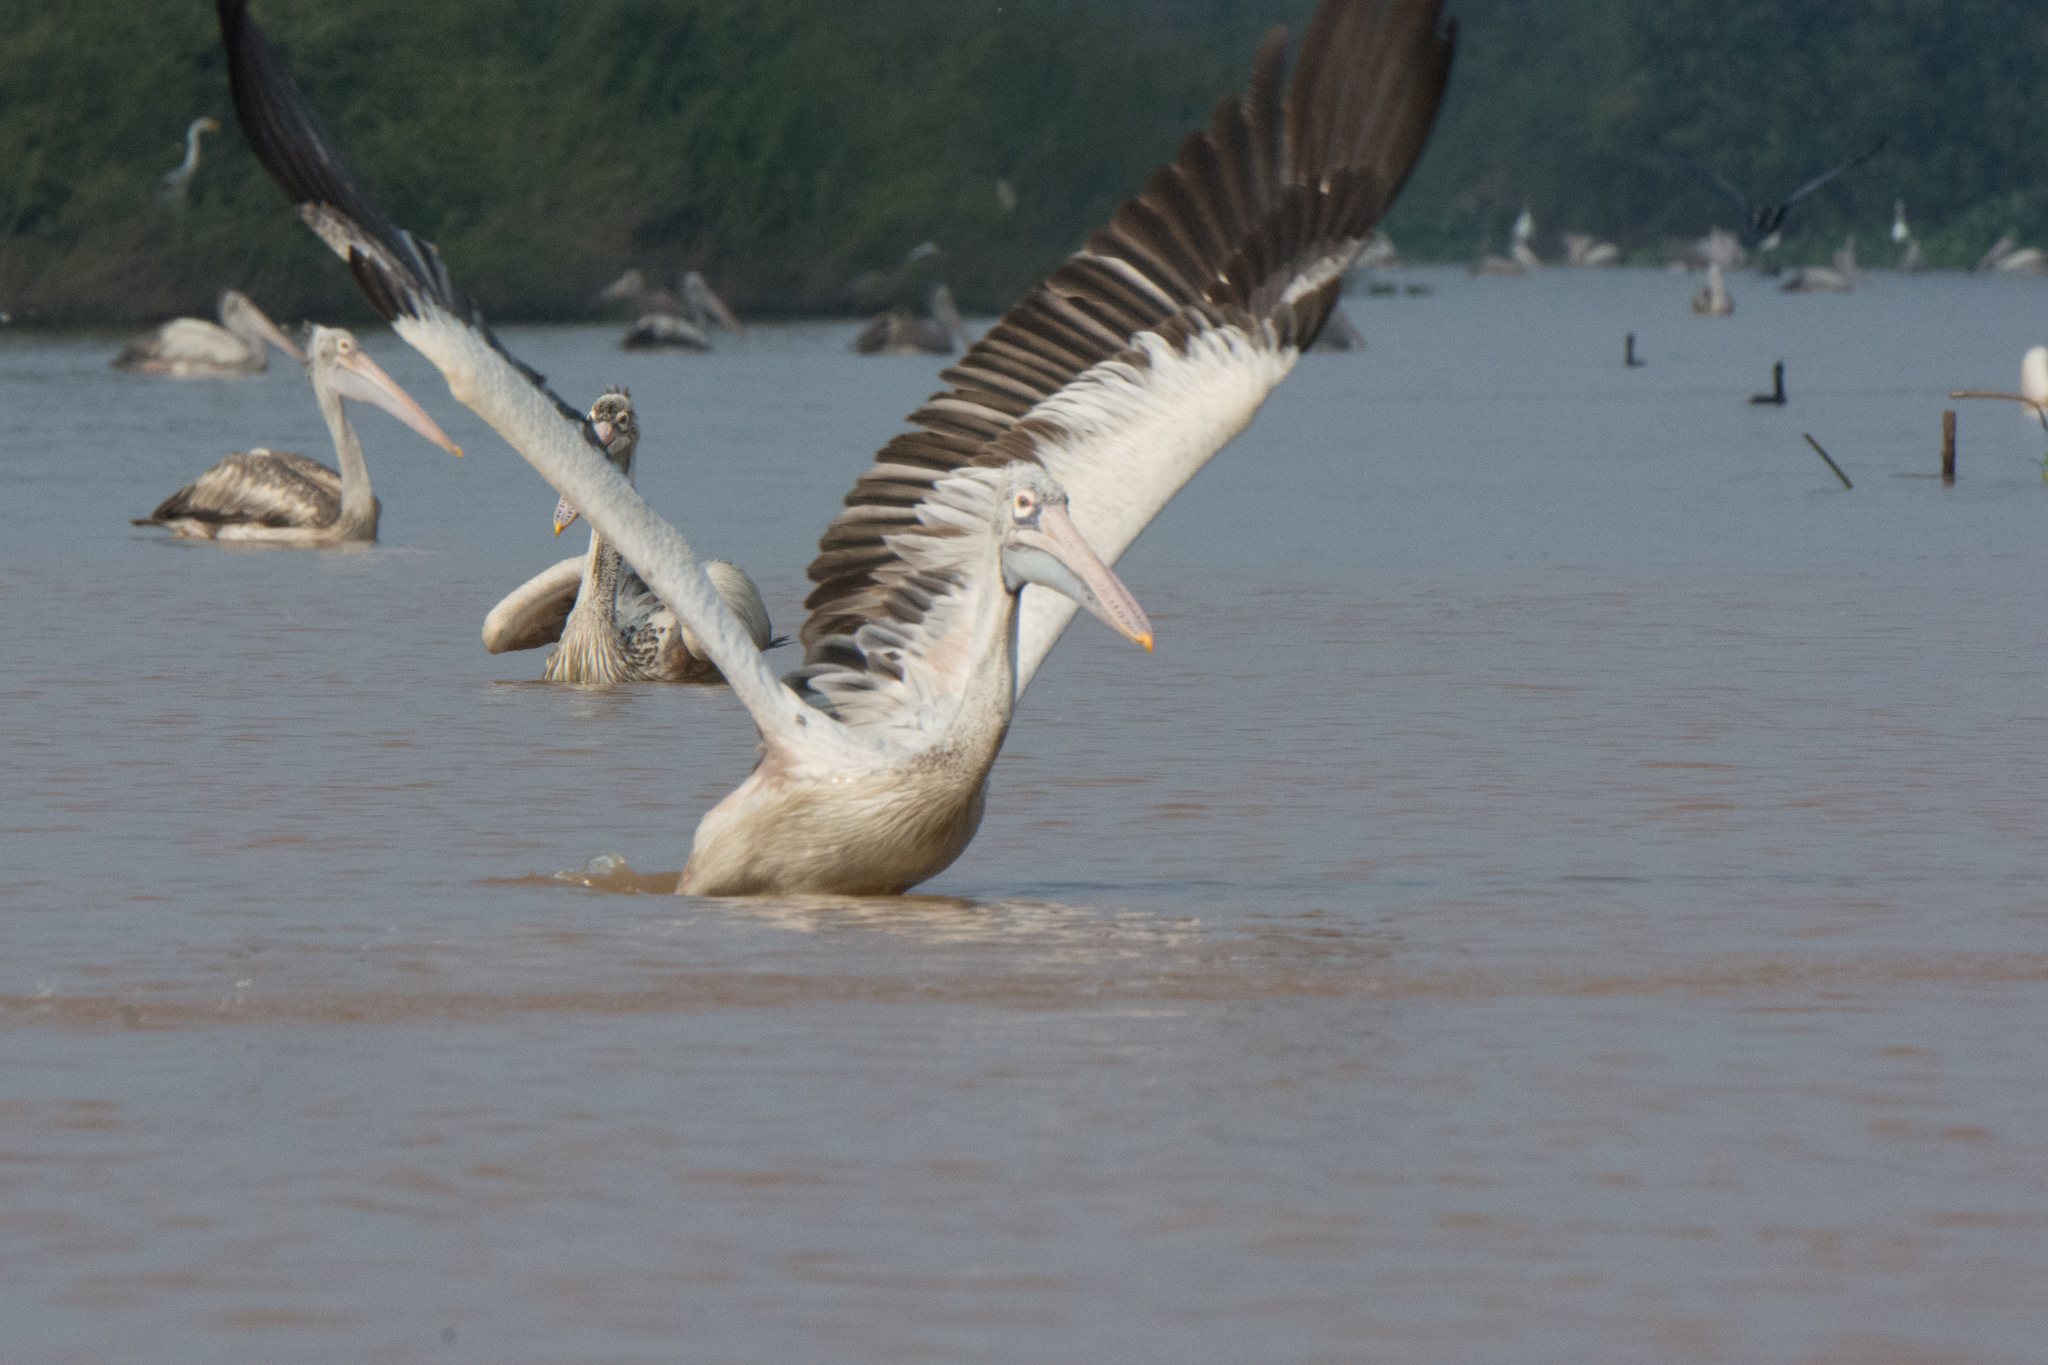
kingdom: Animalia
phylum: Chordata
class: Aves
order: Pelecaniformes
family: Pelecanidae
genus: Pelecanus
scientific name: Pelecanus philippensis
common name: Spot-billed pelican
